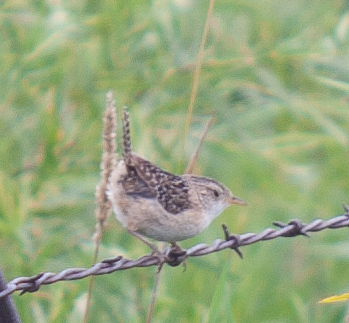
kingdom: Animalia
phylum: Chordata
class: Aves
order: Passeriformes
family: Troglodytidae
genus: Cistothorus
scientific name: Cistothorus platensis
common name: Sedge wren
